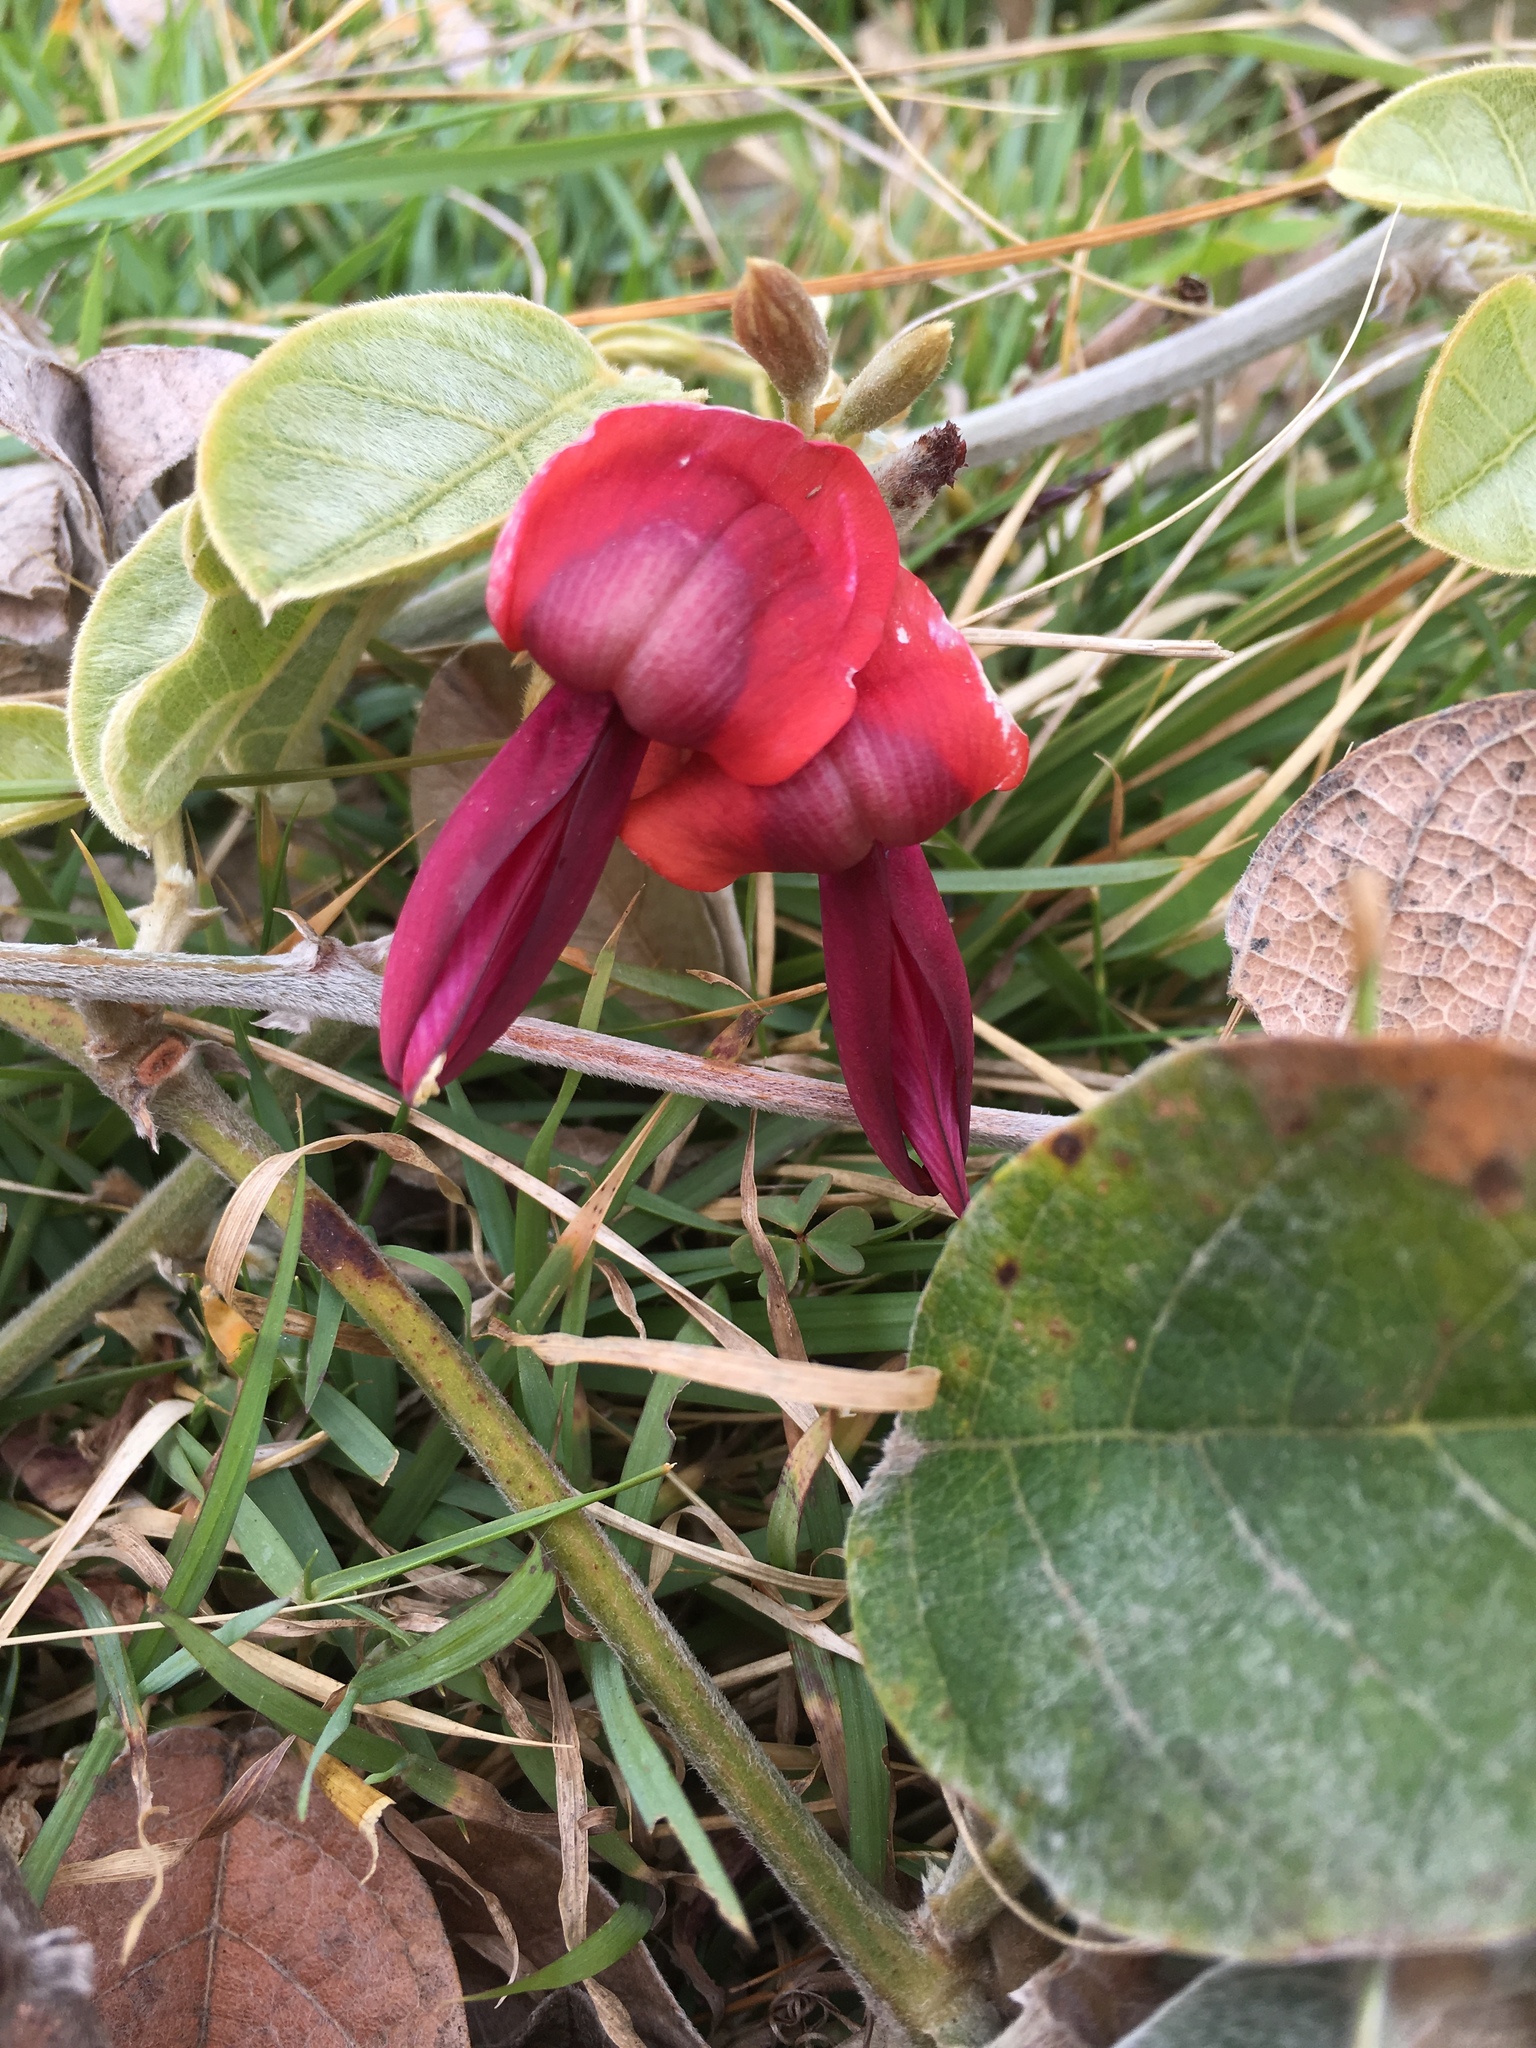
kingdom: Plantae
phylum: Tracheophyta
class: Magnoliopsida
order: Fabales
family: Fabaceae
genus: Kennedia
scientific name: Kennedia rubicunda
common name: Red kennedy-pea
